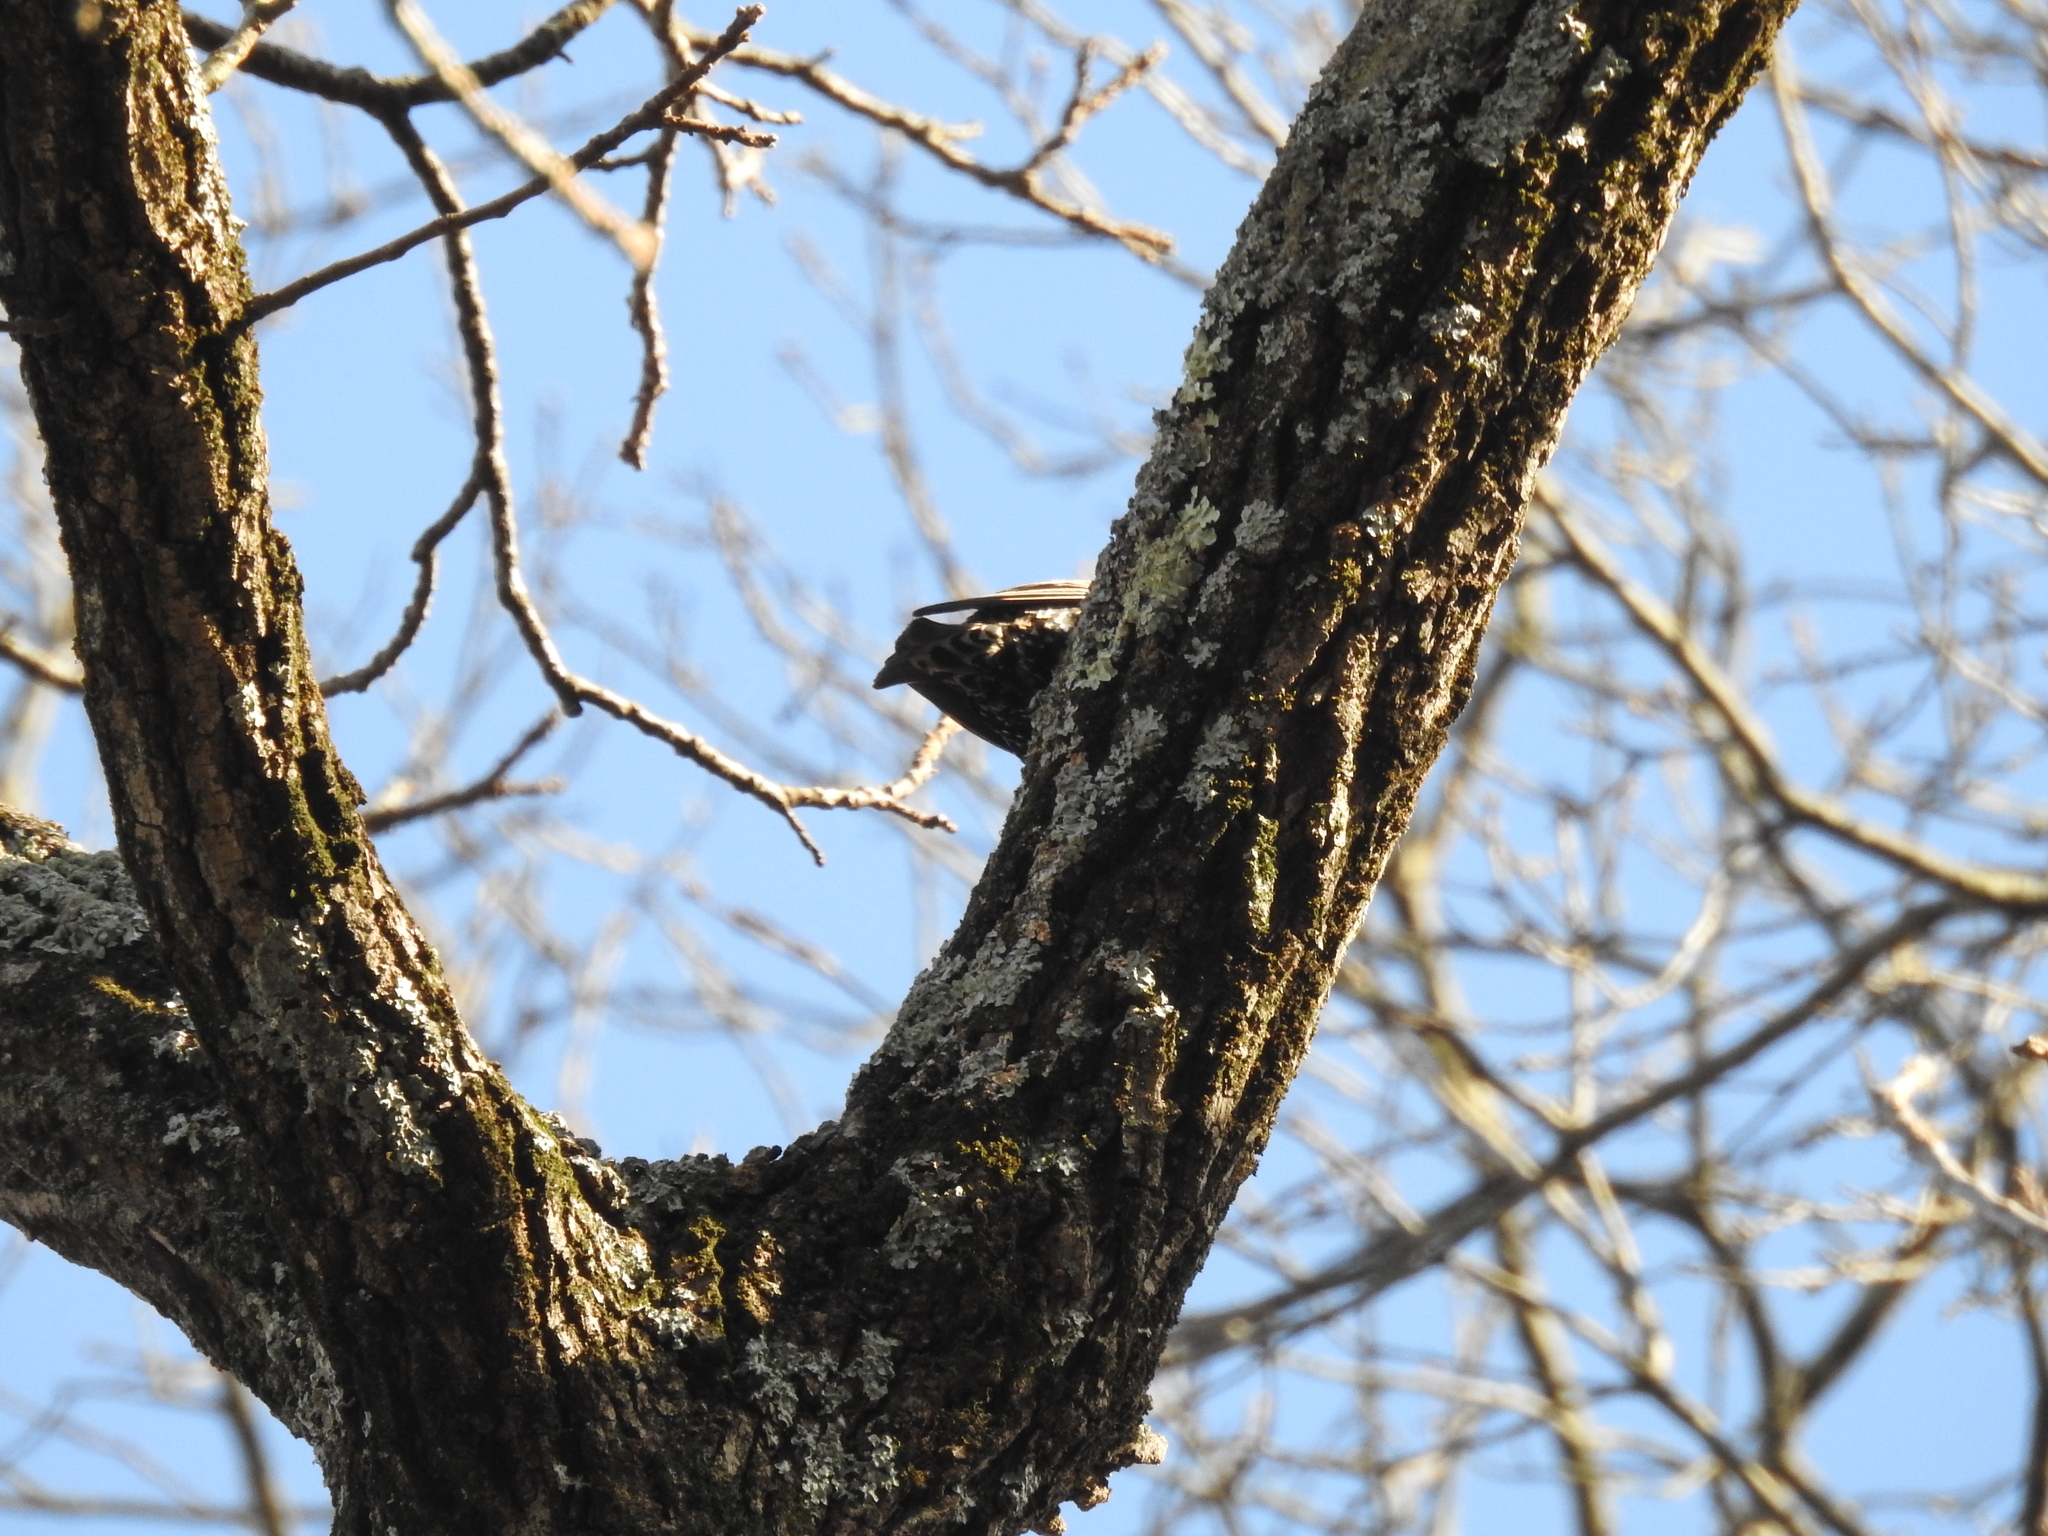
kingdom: Animalia
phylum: Chordata
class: Aves
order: Passeriformes
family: Sturnidae
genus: Sturnus
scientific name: Sturnus vulgaris
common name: Common starling
